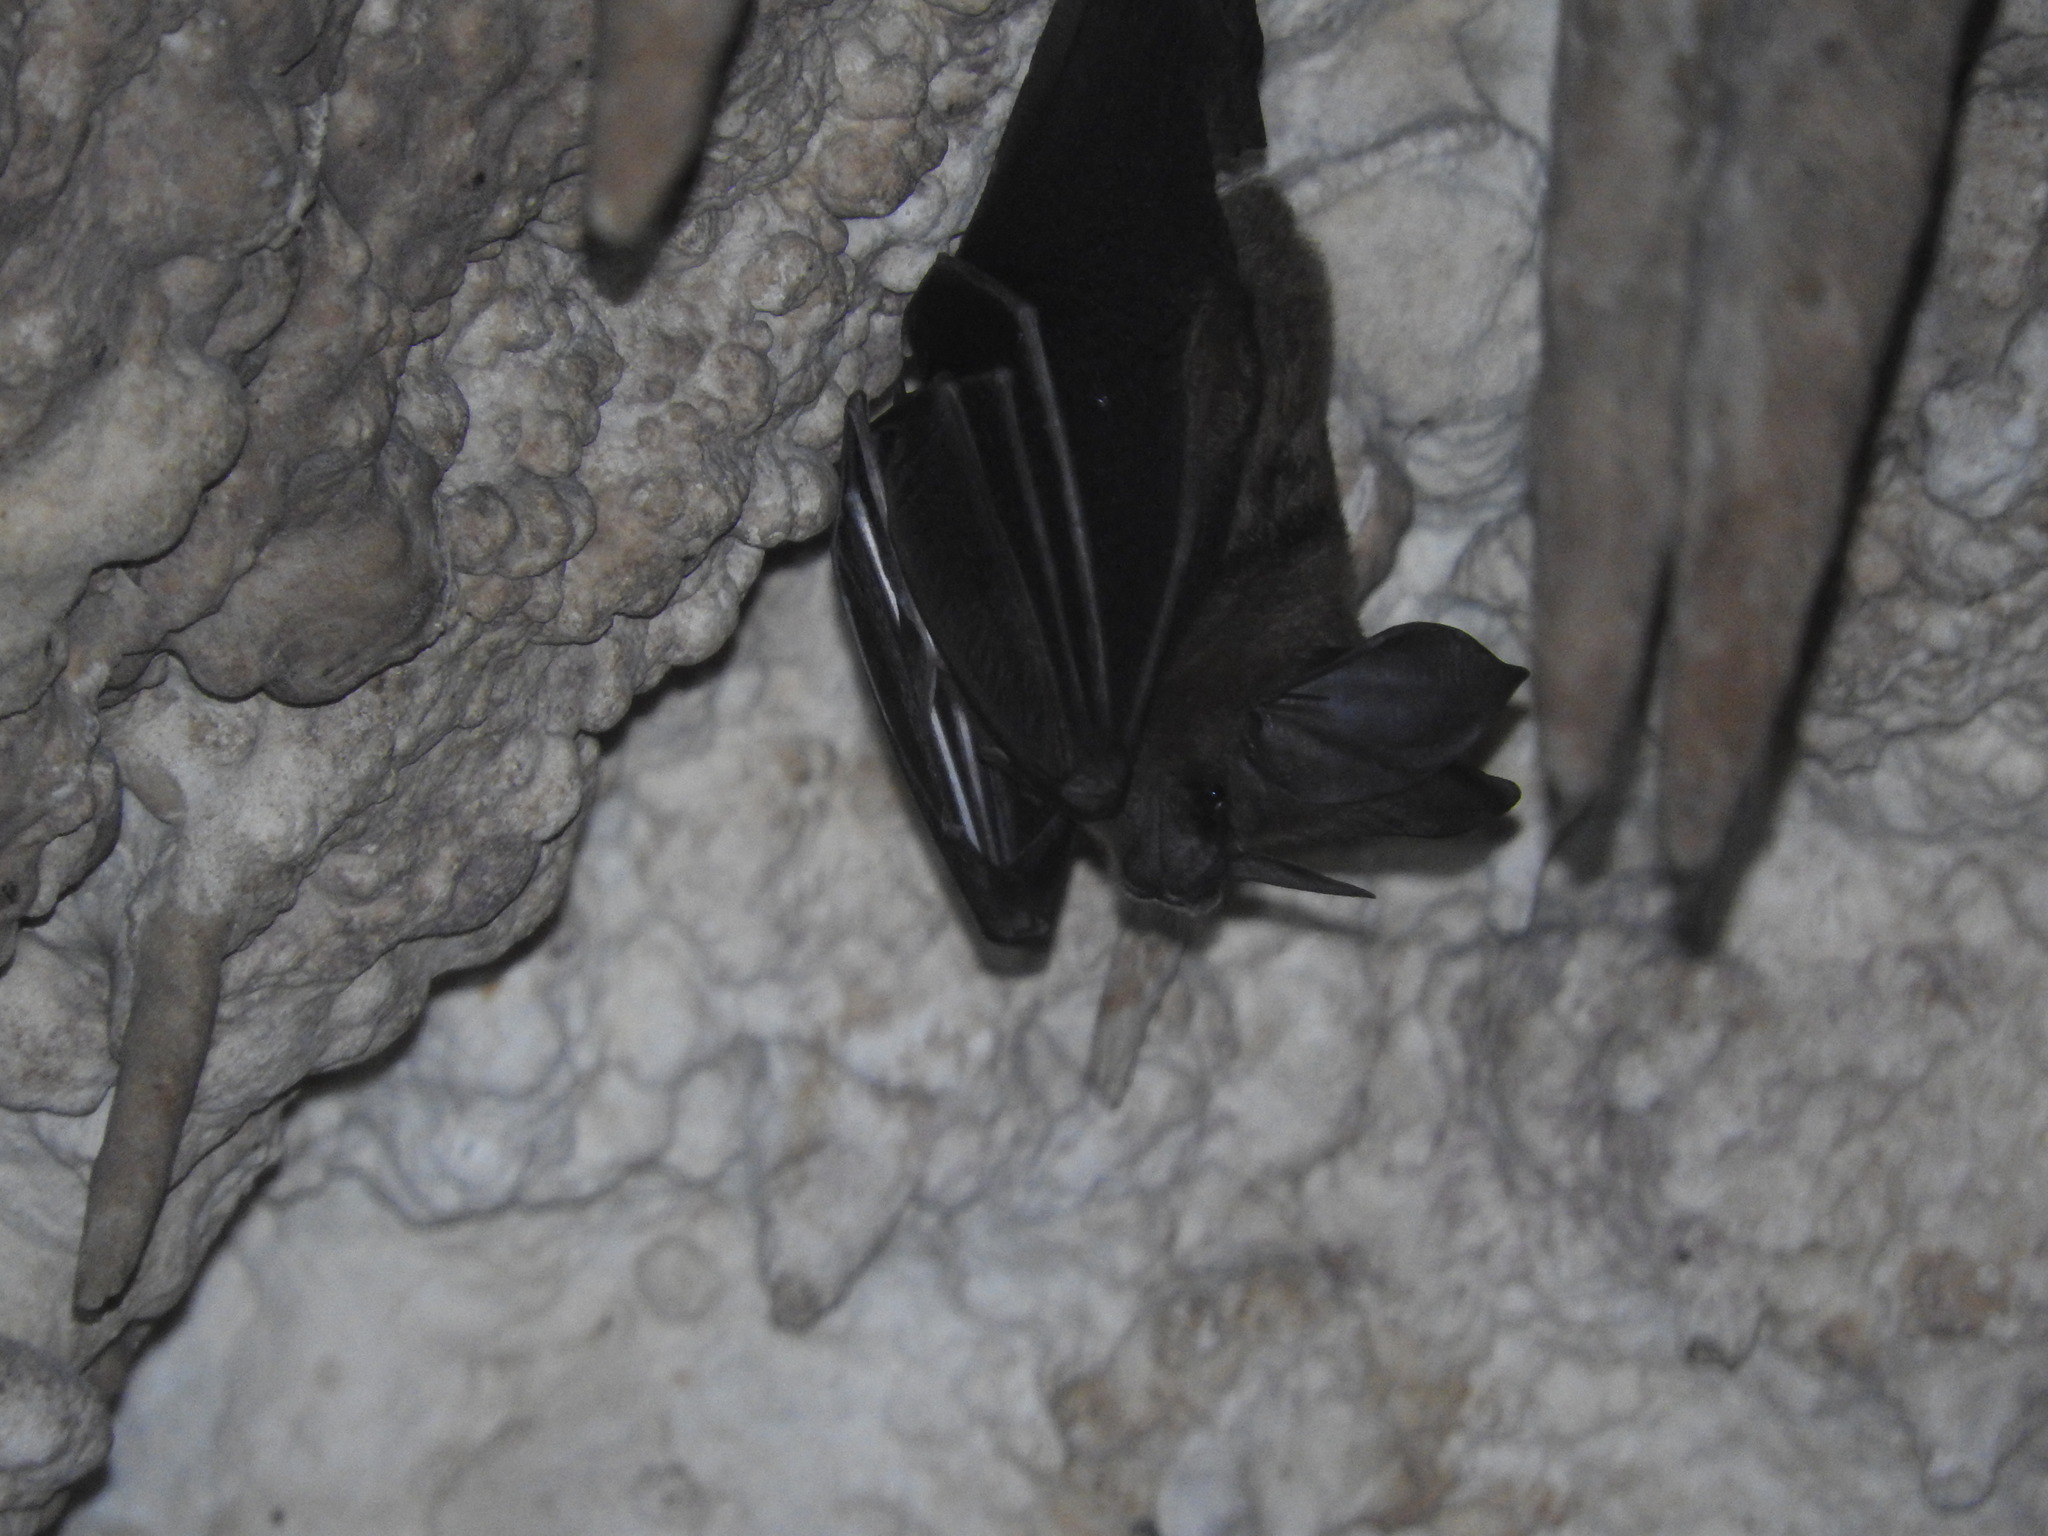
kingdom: Animalia
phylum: Chordata
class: Mammalia
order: Chiroptera
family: Phyllostomidae
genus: Mimon
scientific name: Mimon cozumelae
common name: Cozumelan golden bat
